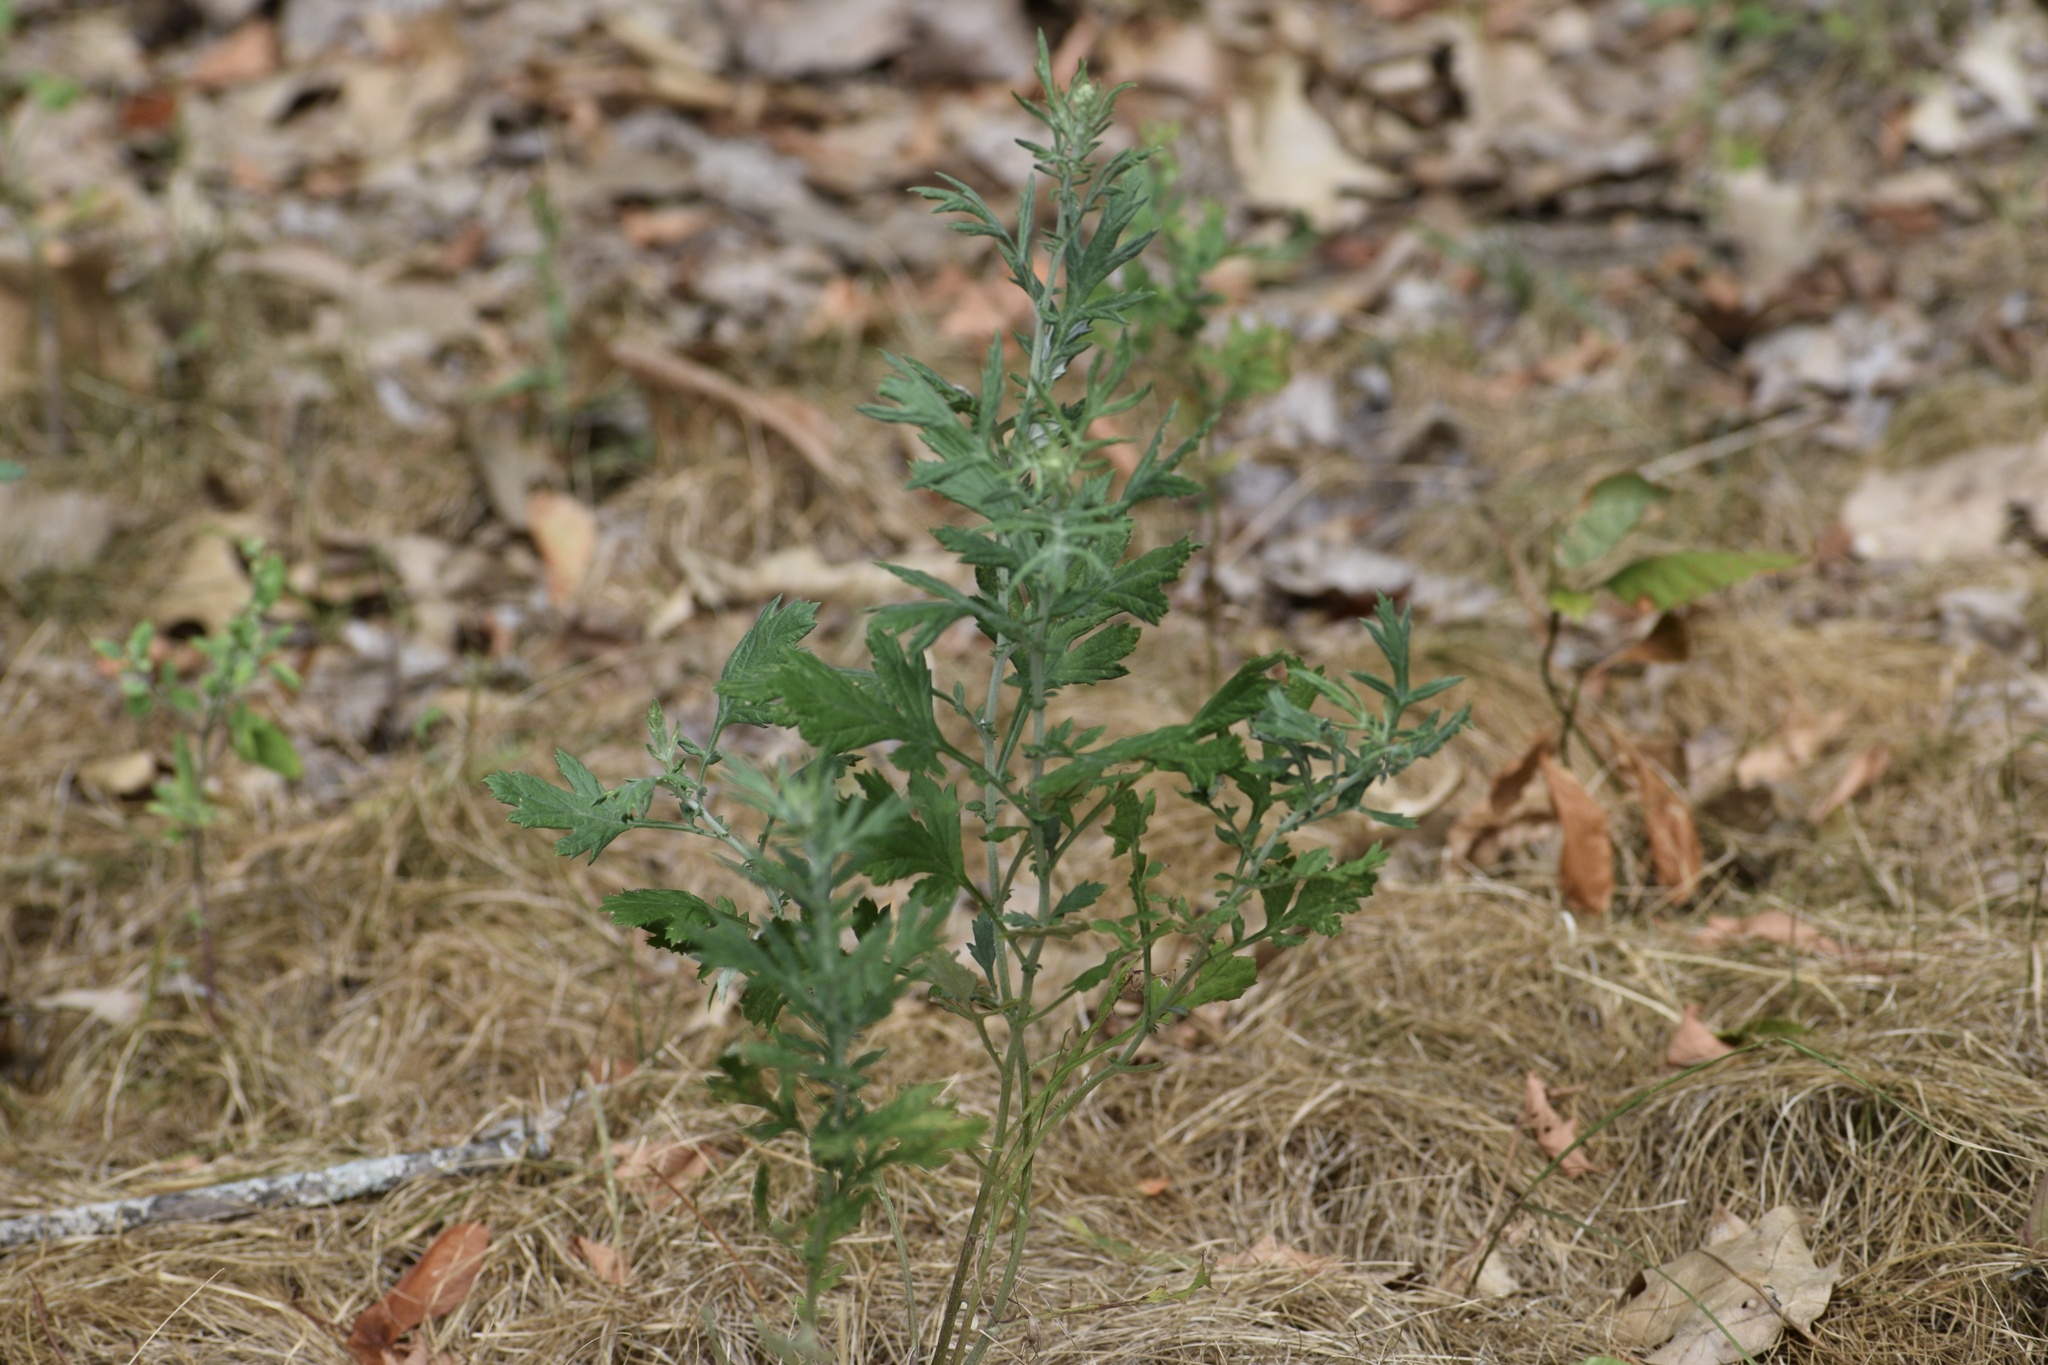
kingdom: Plantae
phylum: Tracheophyta
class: Magnoliopsida
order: Asterales
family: Asteraceae
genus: Artemisia
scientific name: Artemisia vulgaris
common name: Mugwort
